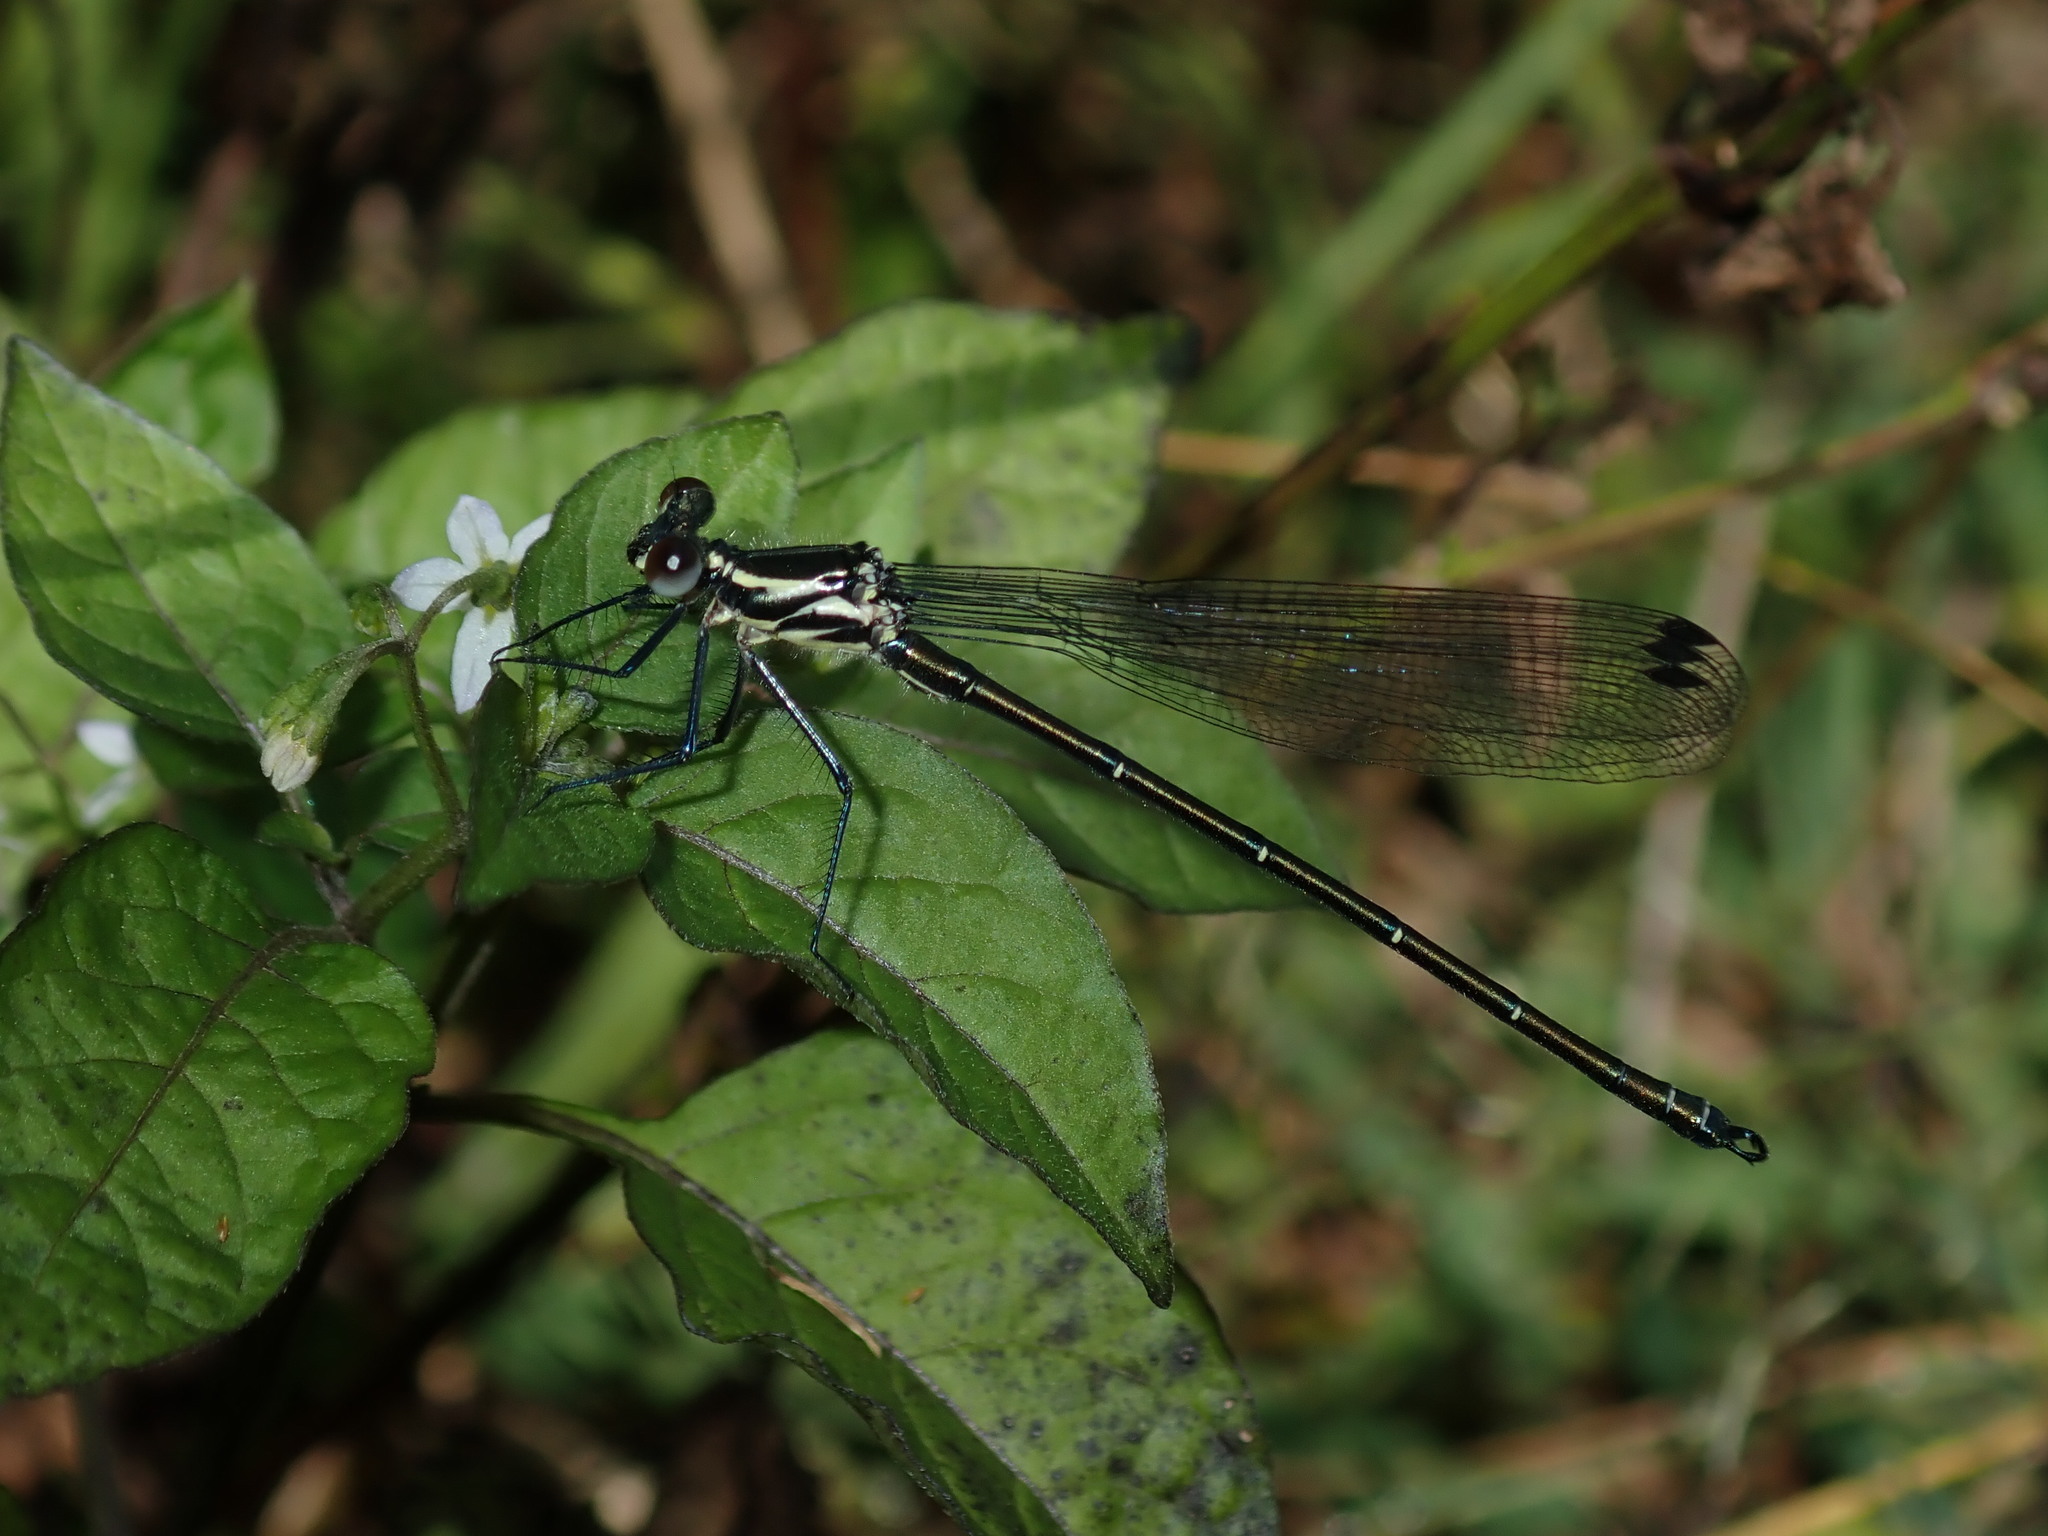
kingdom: Animalia
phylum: Arthropoda
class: Insecta
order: Odonata
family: Argiolestidae
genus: Austroargiolestes
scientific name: Austroargiolestes icteromelas
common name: Common flatwing
